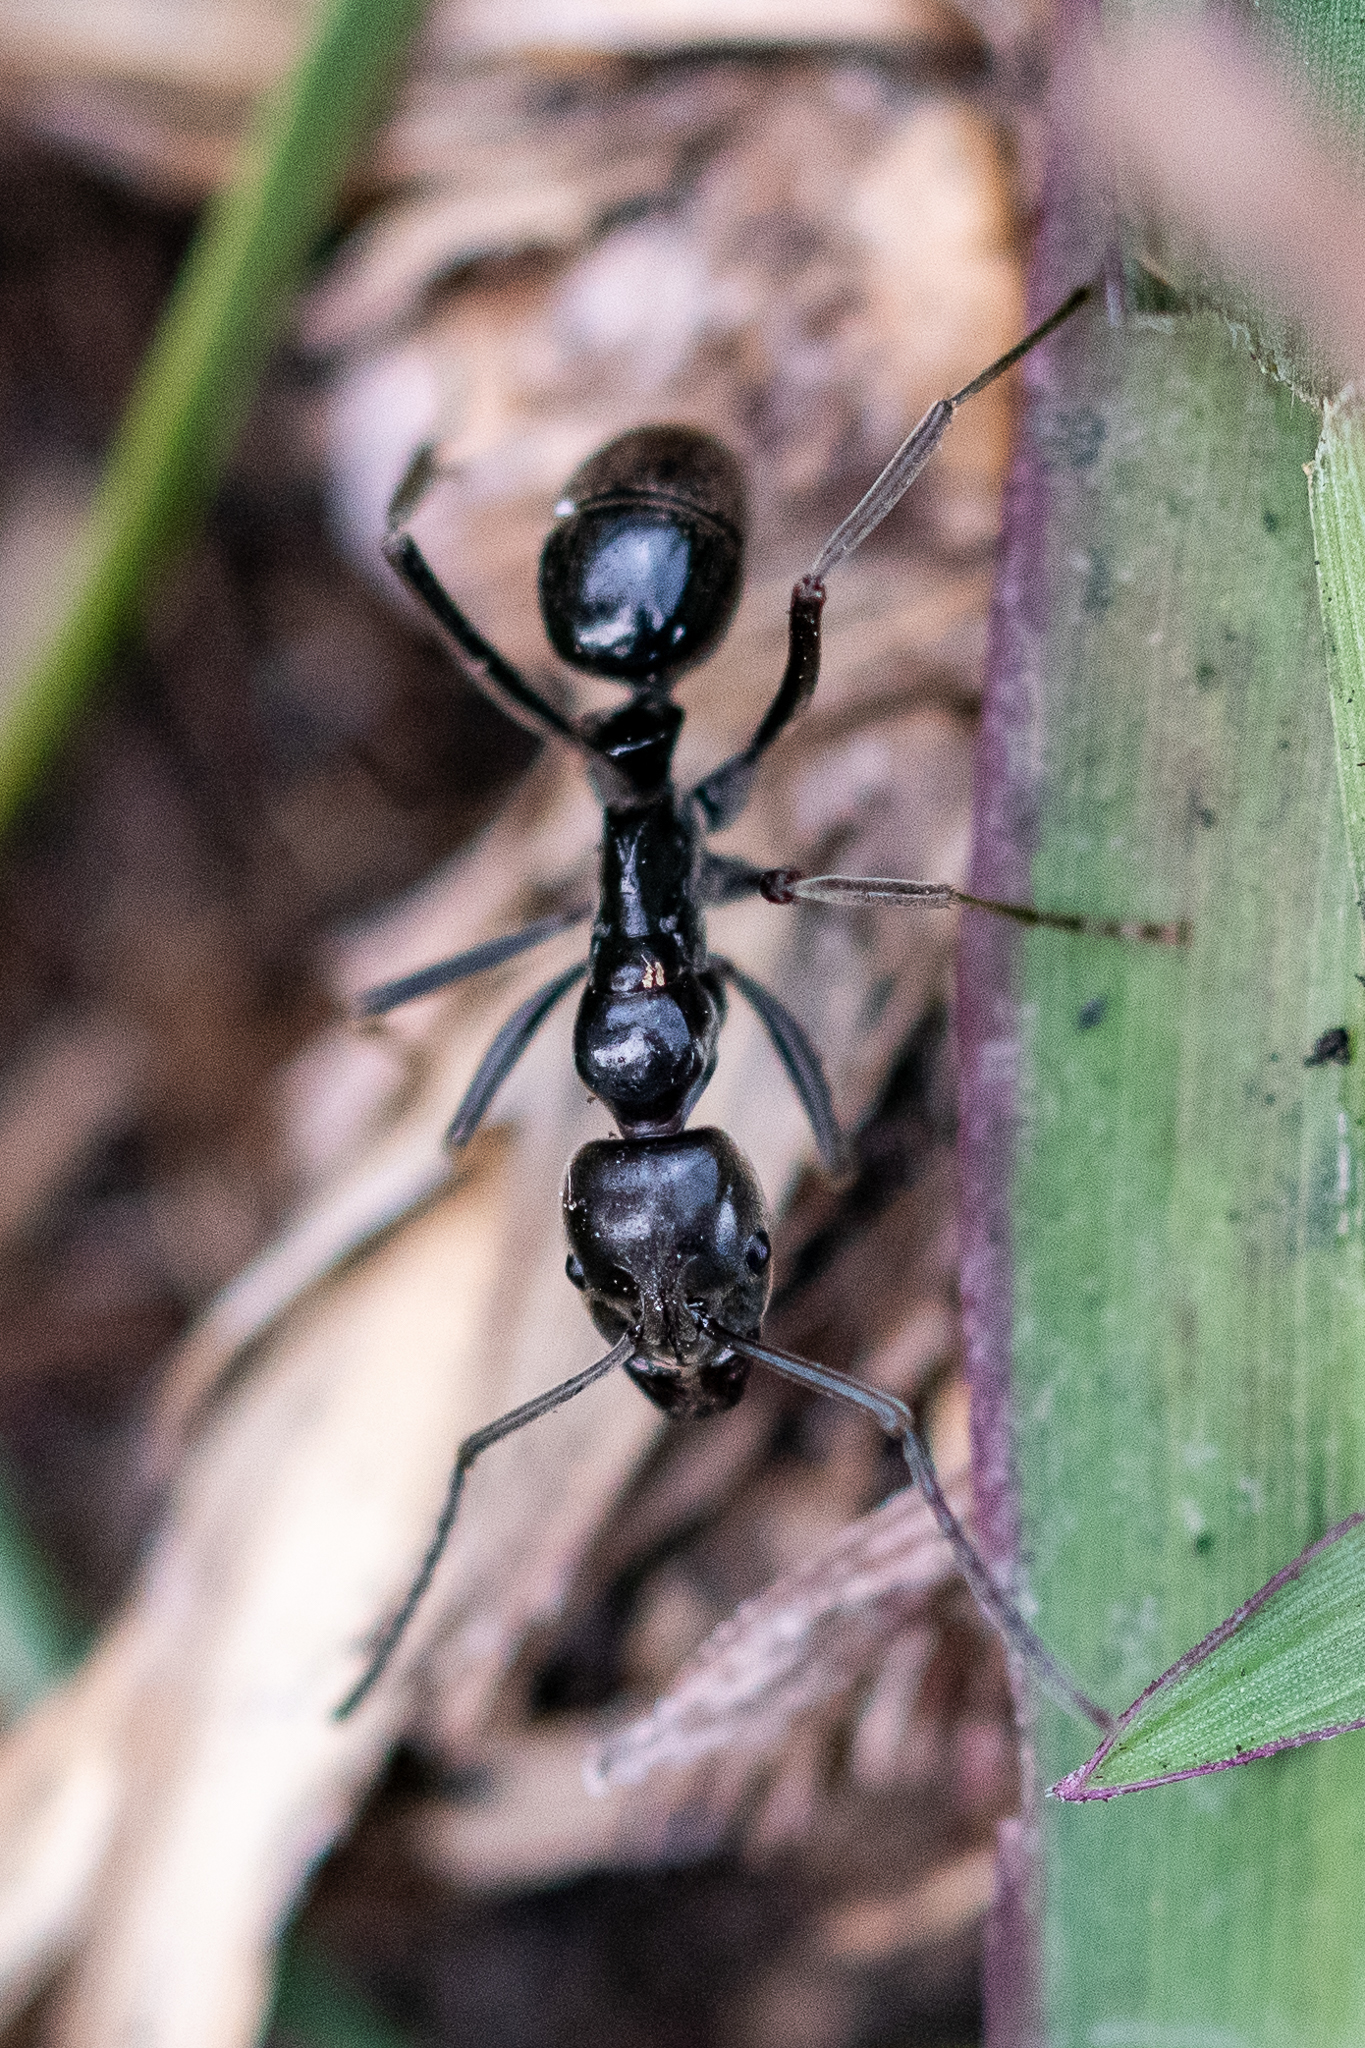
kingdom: Animalia
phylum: Arthropoda
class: Insecta
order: Hymenoptera
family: Formicidae
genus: Hagensia
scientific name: Hagensia
